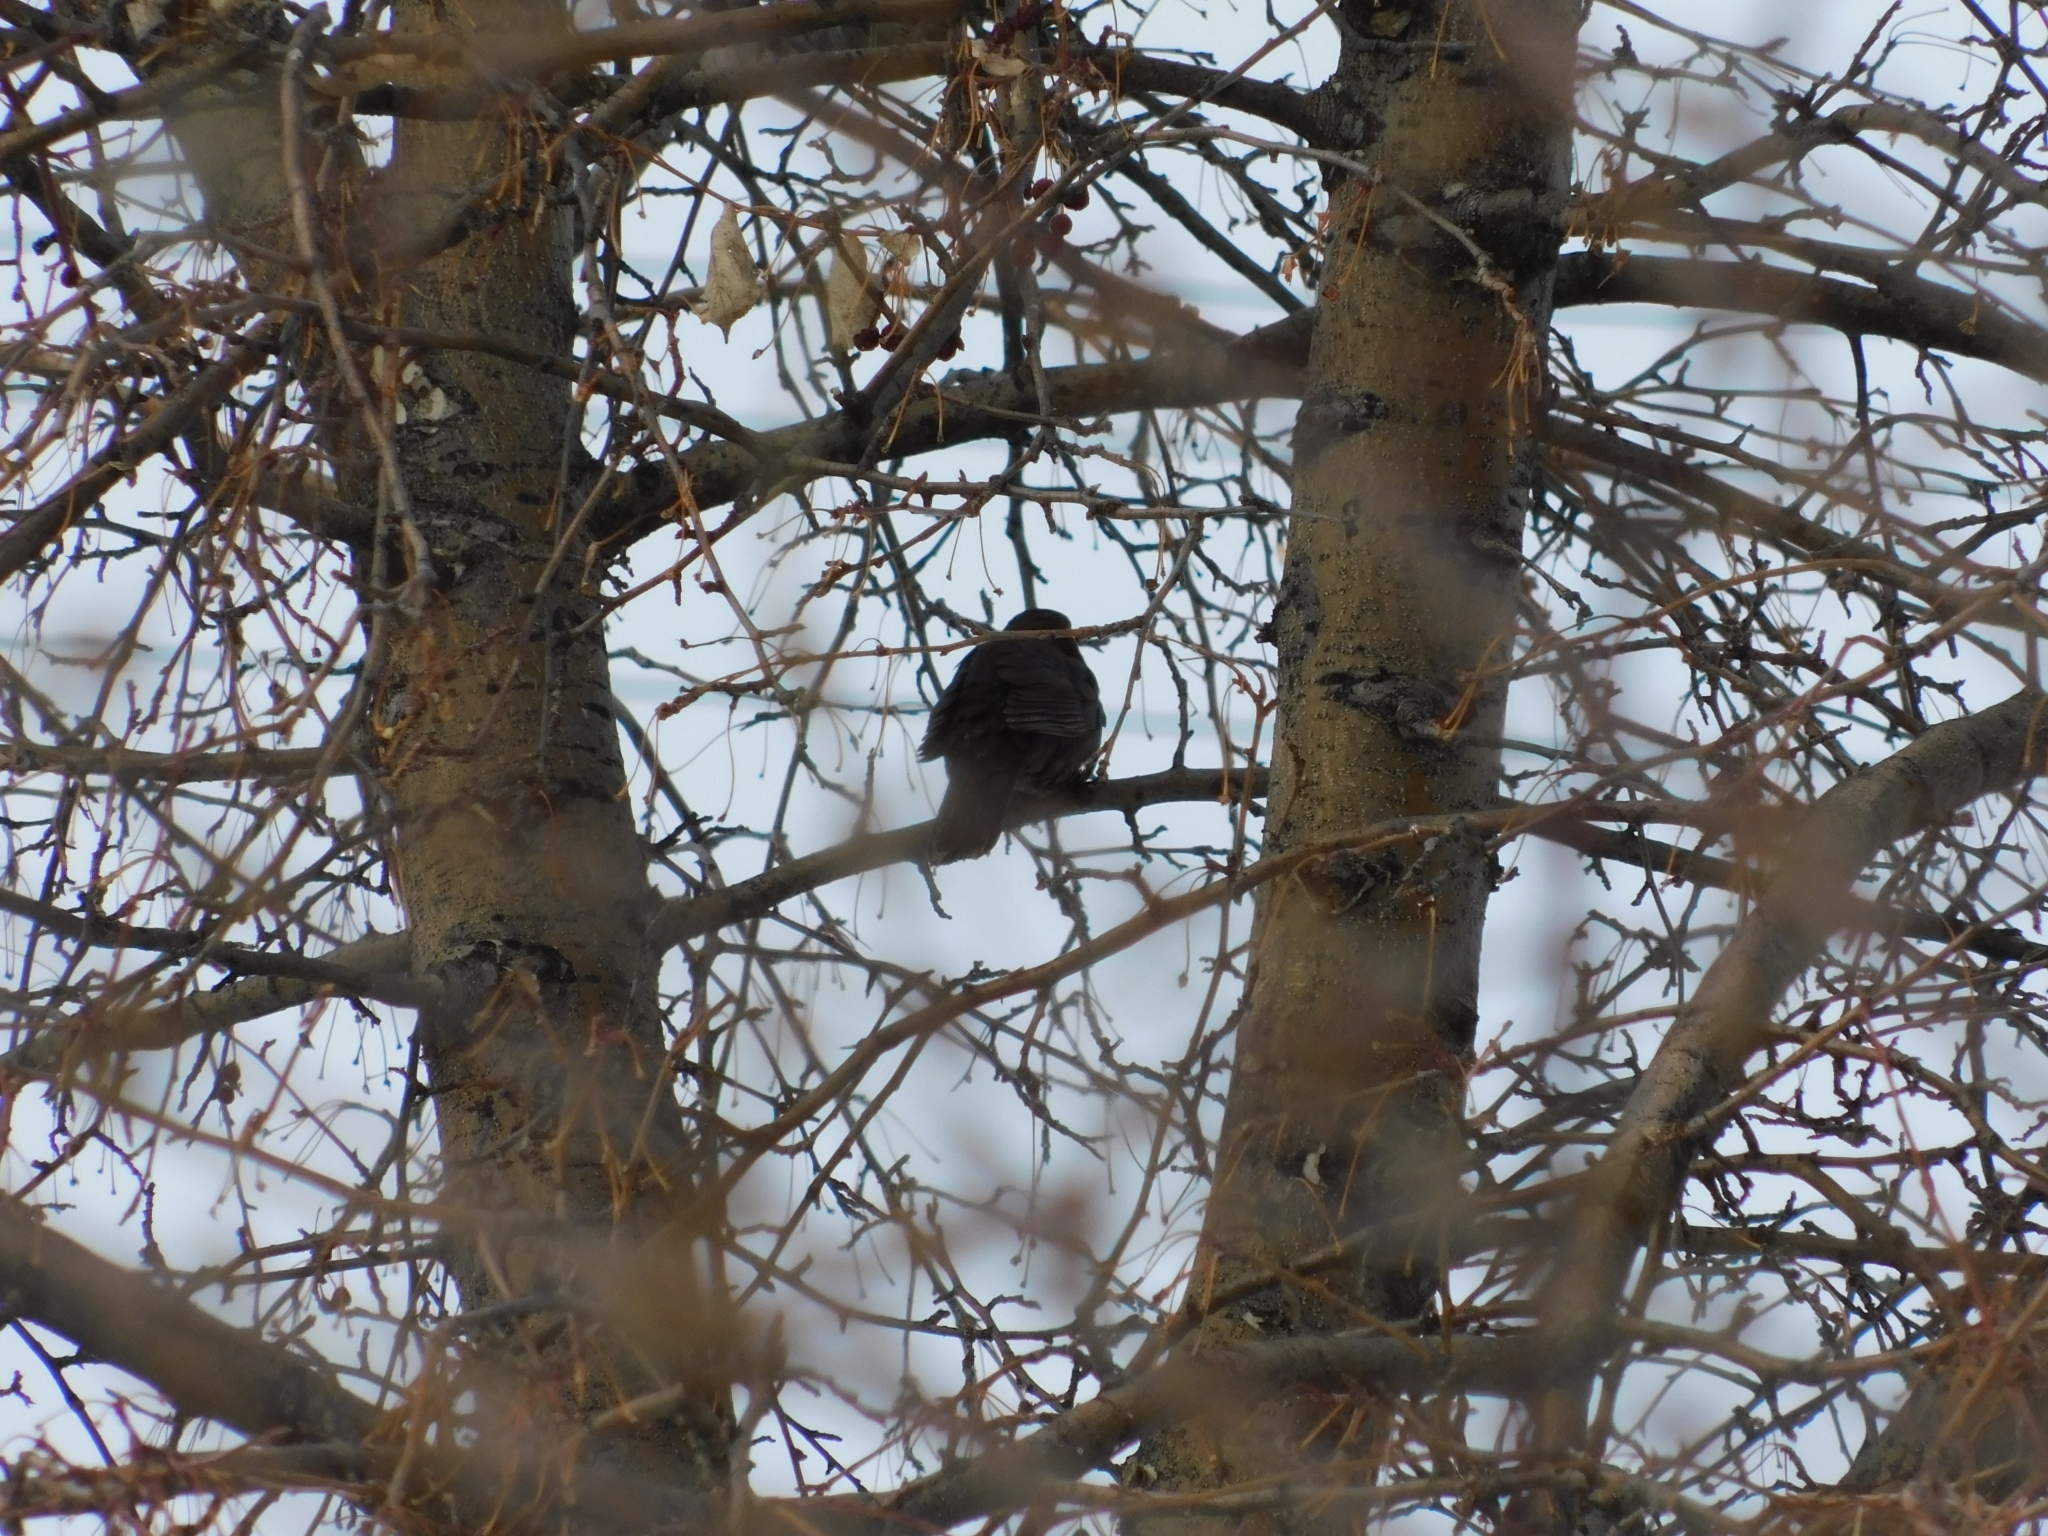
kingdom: Animalia
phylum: Chordata
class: Aves
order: Passeriformes
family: Turdidae
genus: Turdus
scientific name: Turdus merula
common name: Common blackbird
